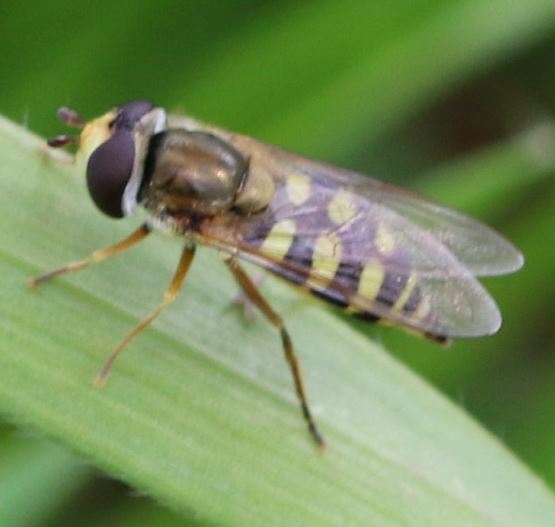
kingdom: Animalia
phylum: Arthropoda
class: Insecta
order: Diptera
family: Syrphidae
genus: Eupeodes
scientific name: Eupeodes corollae
